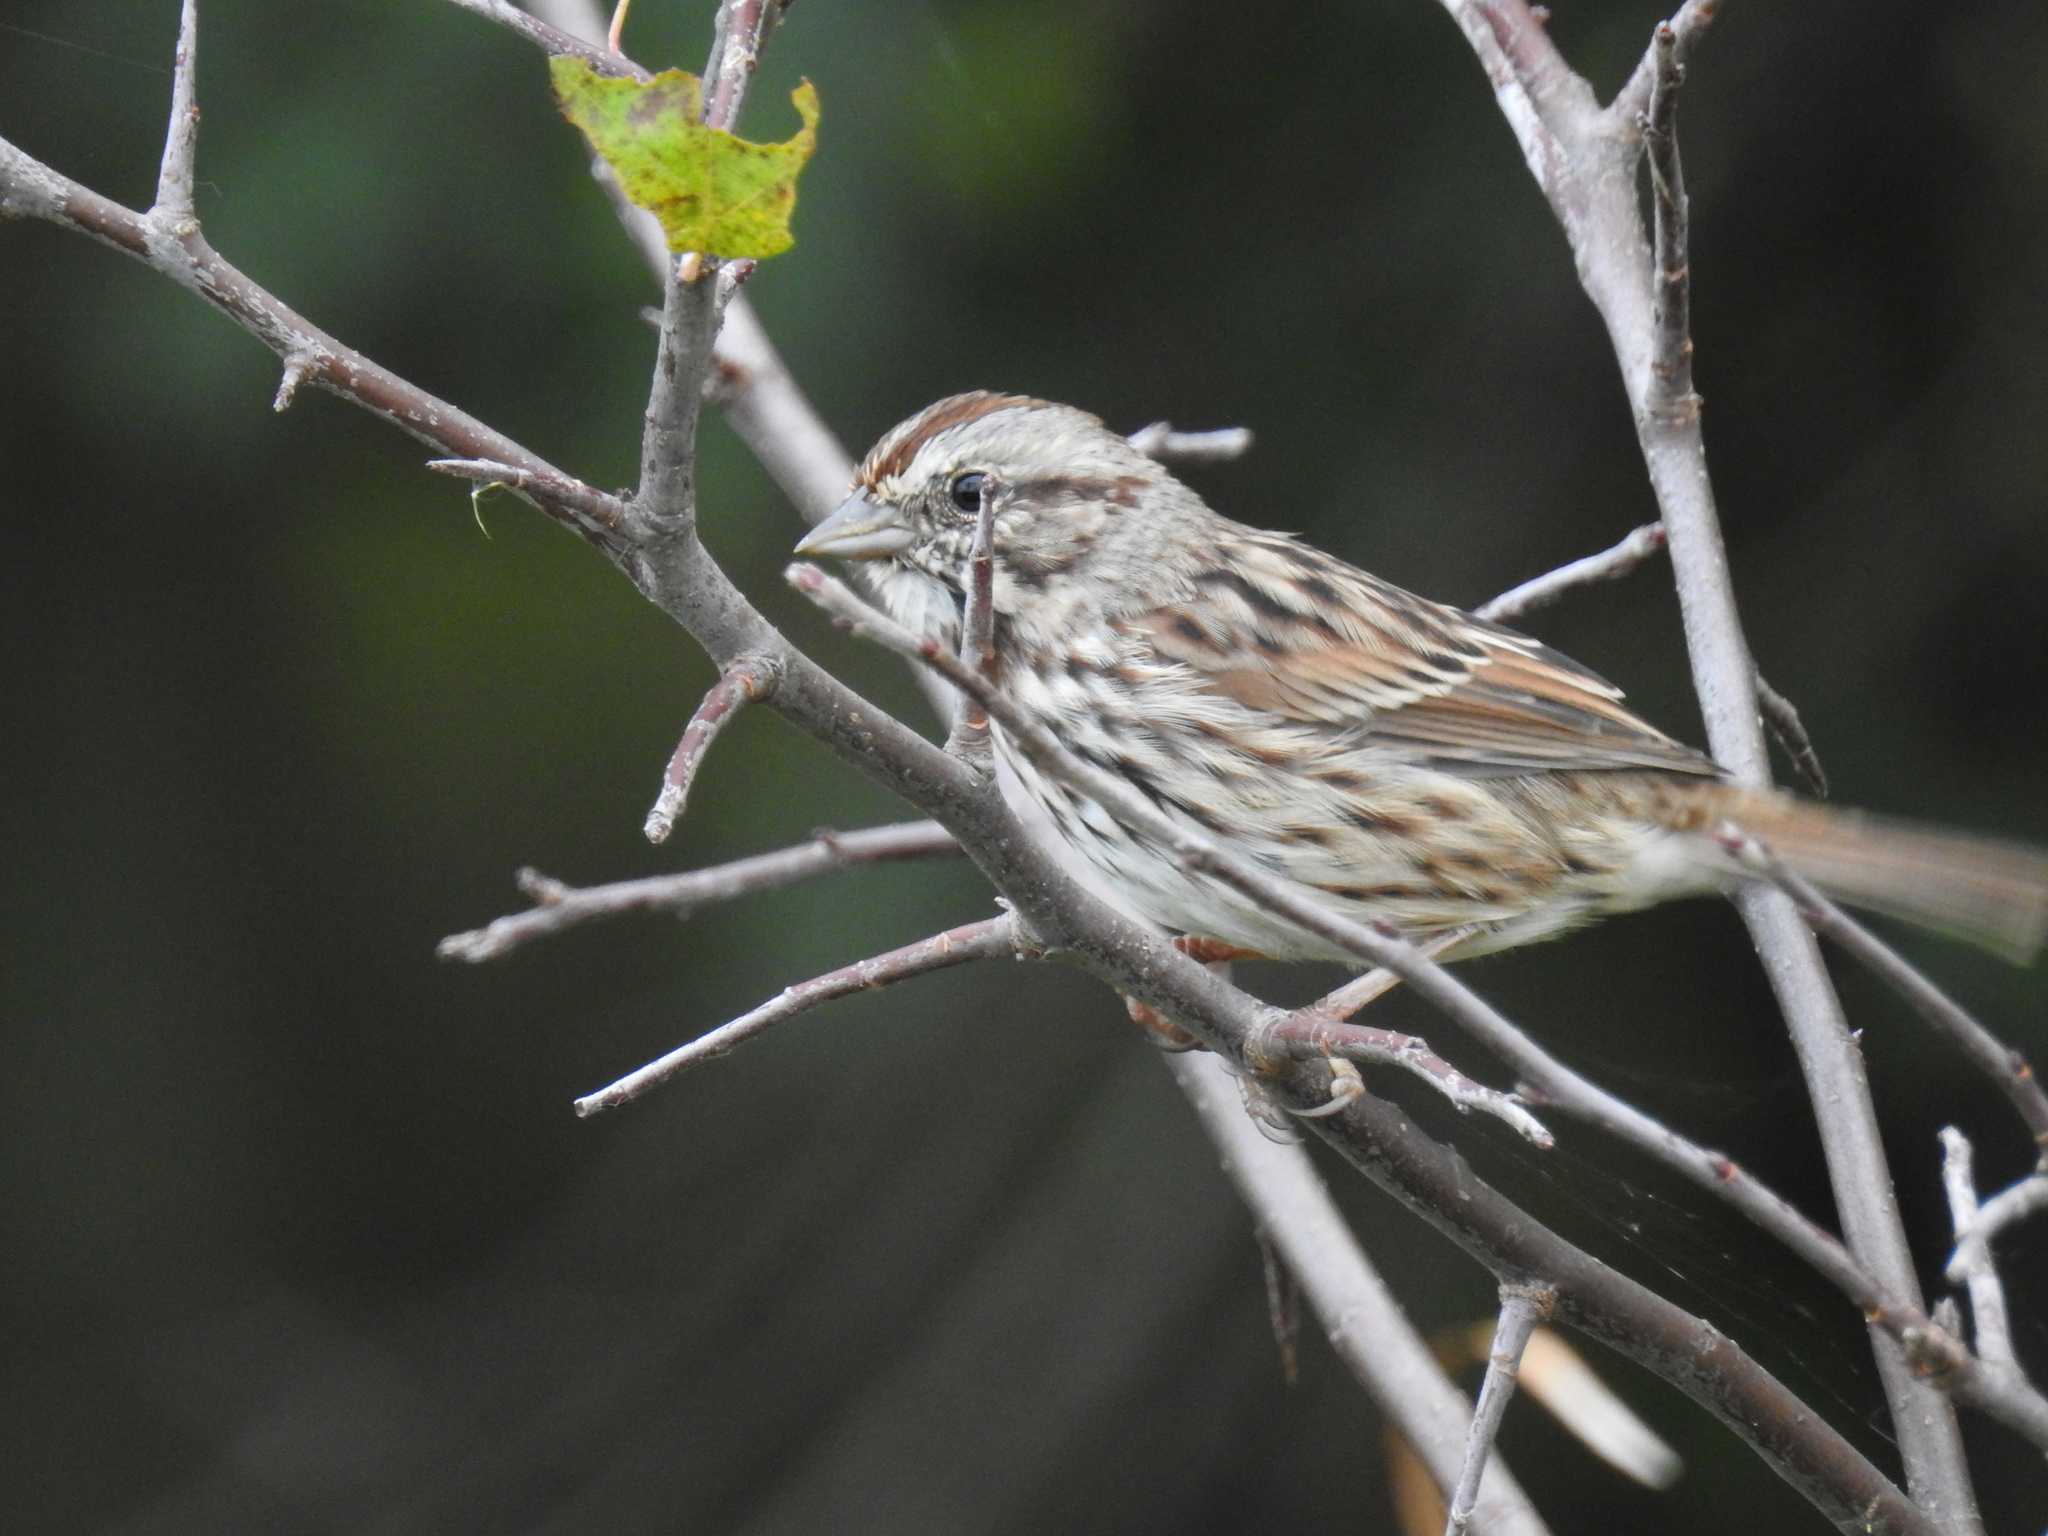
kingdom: Animalia
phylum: Chordata
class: Aves
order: Passeriformes
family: Passerellidae
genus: Melospiza
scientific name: Melospiza melodia
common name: Song sparrow
